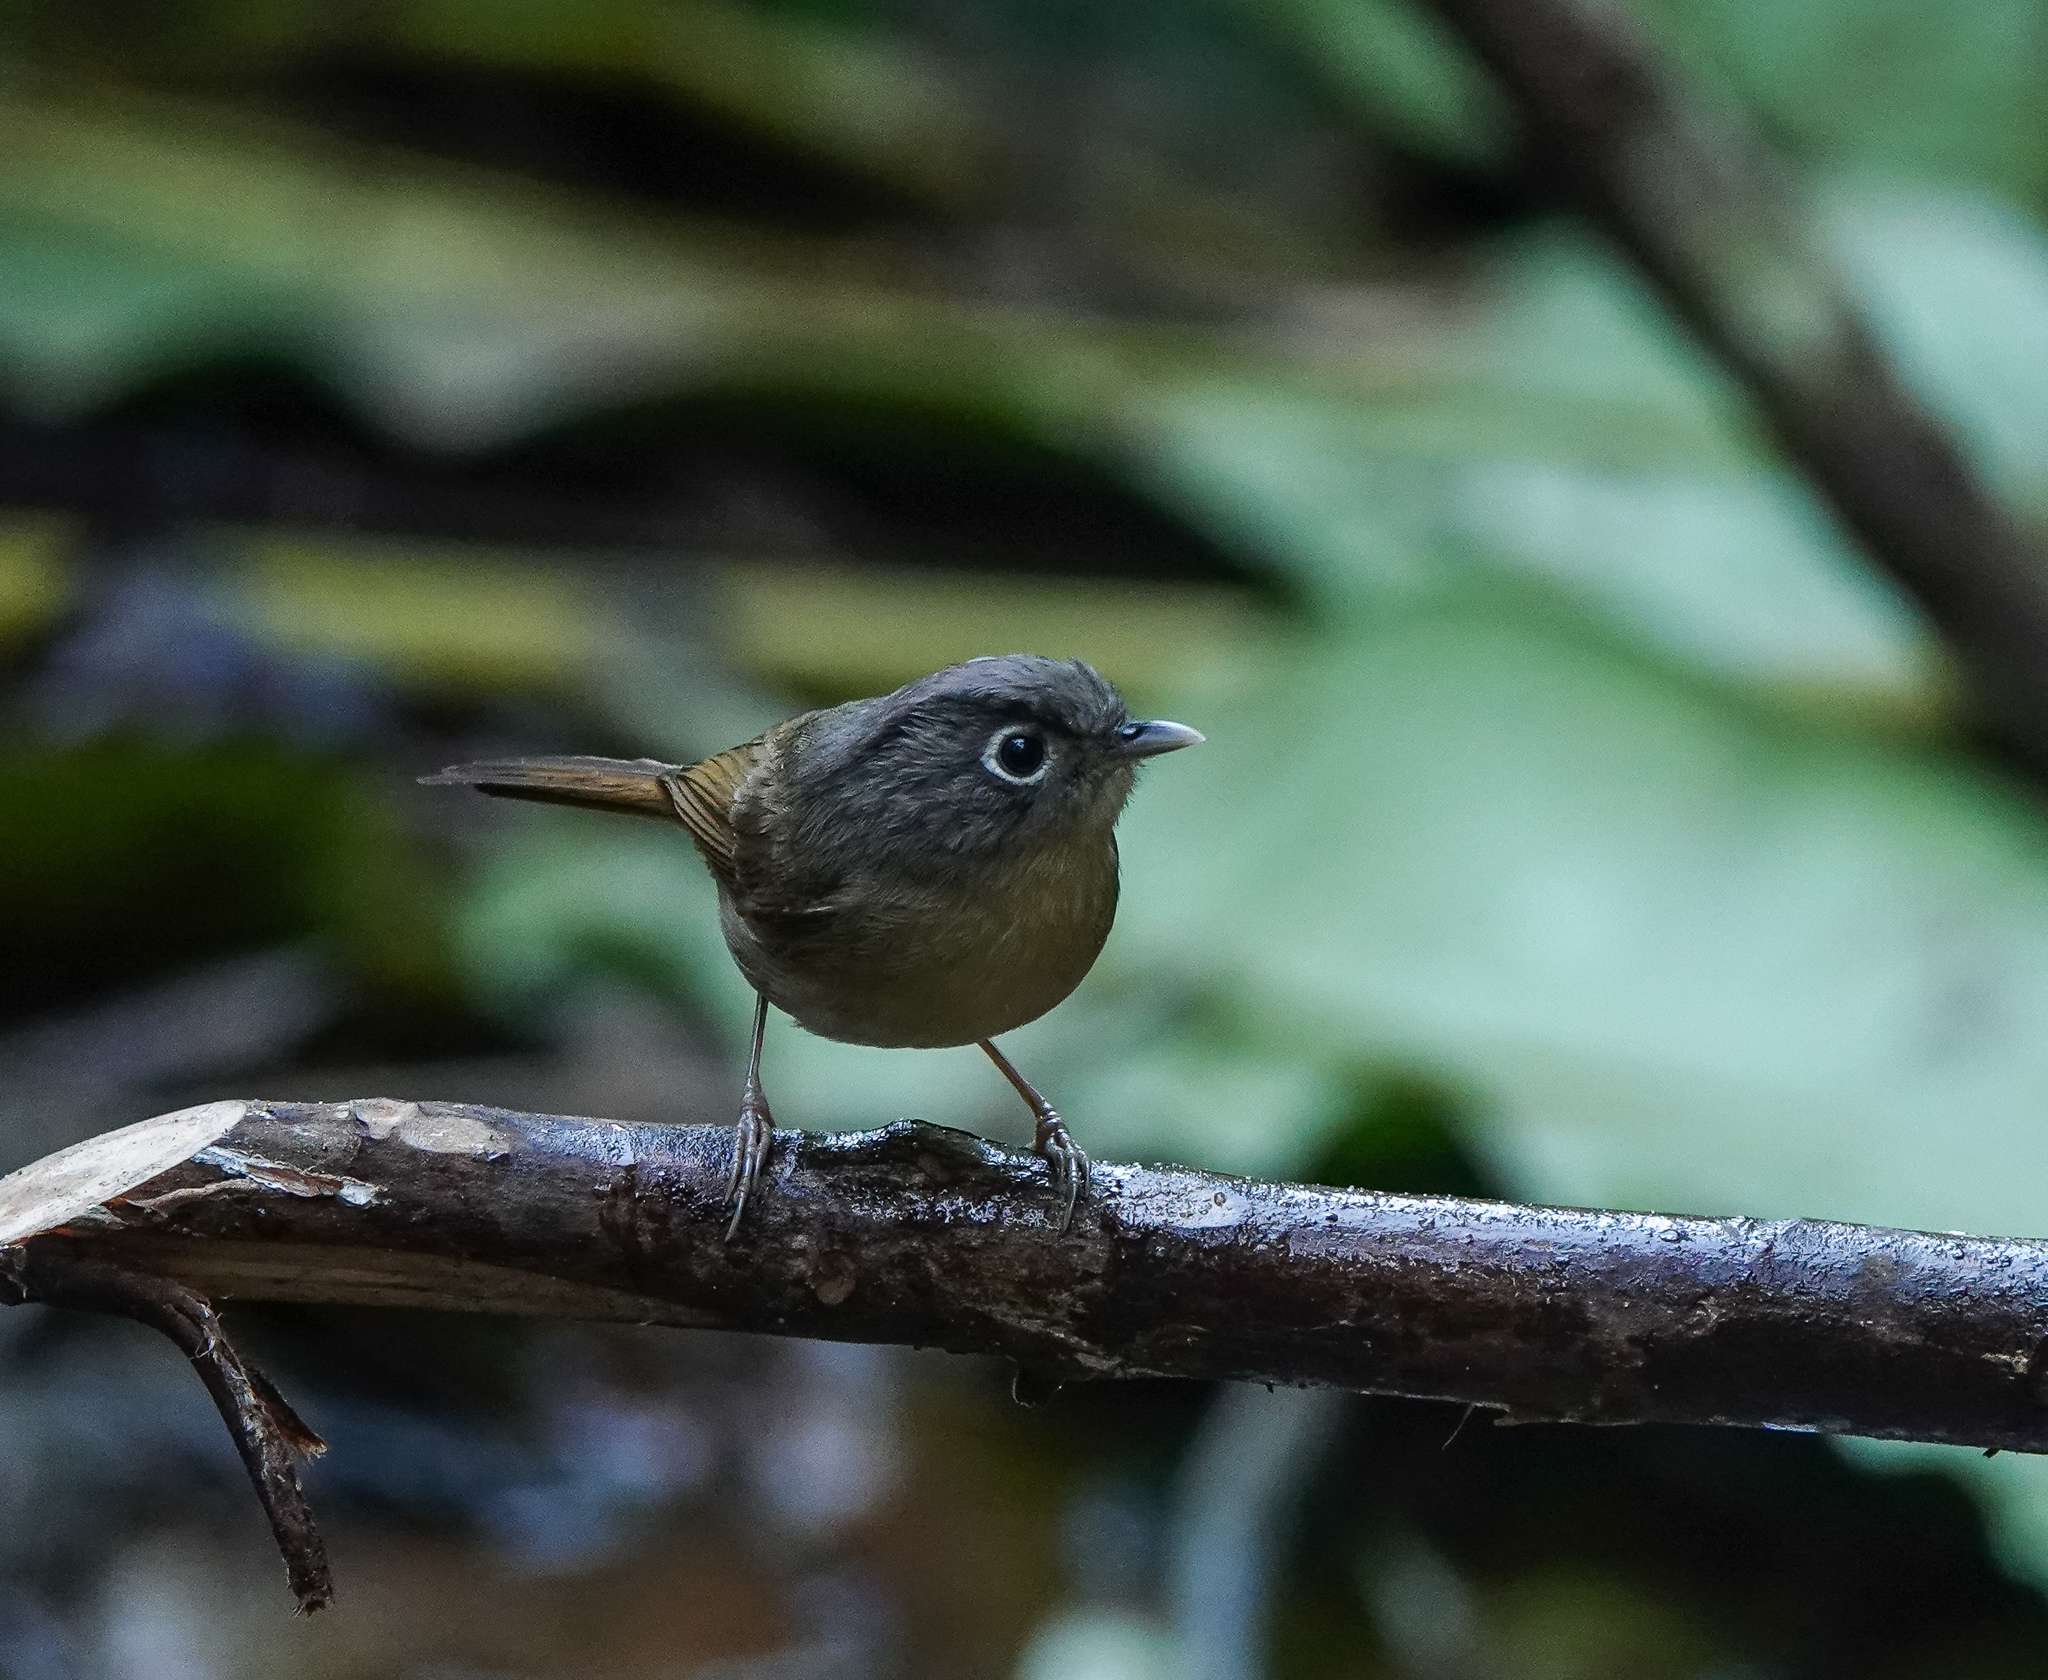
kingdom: Animalia
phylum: Chordata
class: Aves
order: Passeriformes
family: Pellorneidae
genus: Alcippe
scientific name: Alcippe nipalensis
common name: Nepal fulvetta
